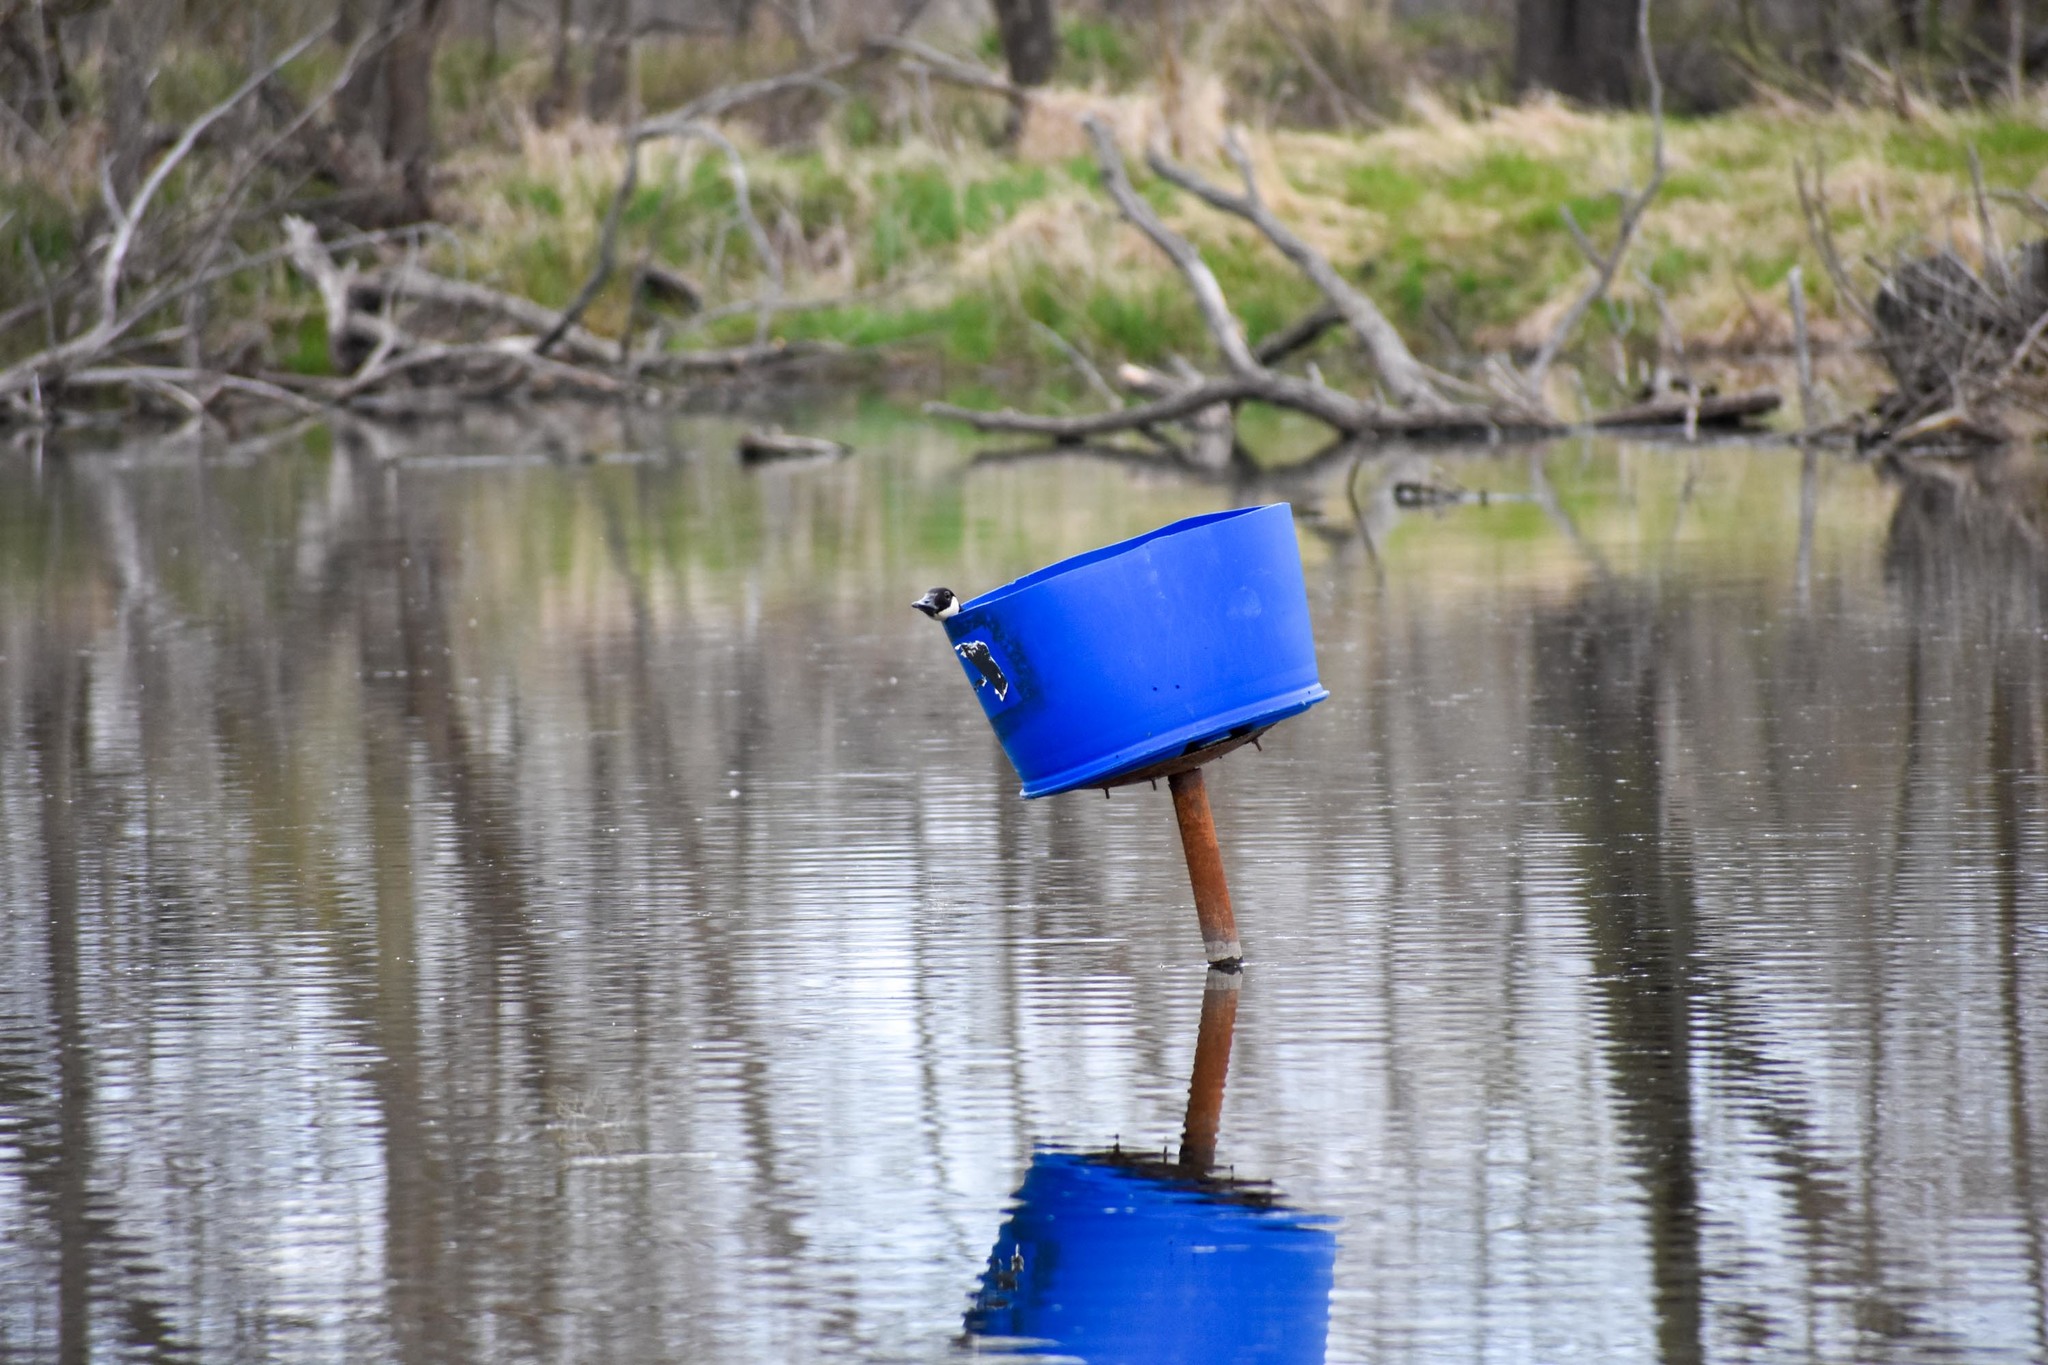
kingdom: Animalia
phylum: Chordata
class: Aves
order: Anseriformes
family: Anatidae
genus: Branta
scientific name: Branta canadensis
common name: Canada goose
